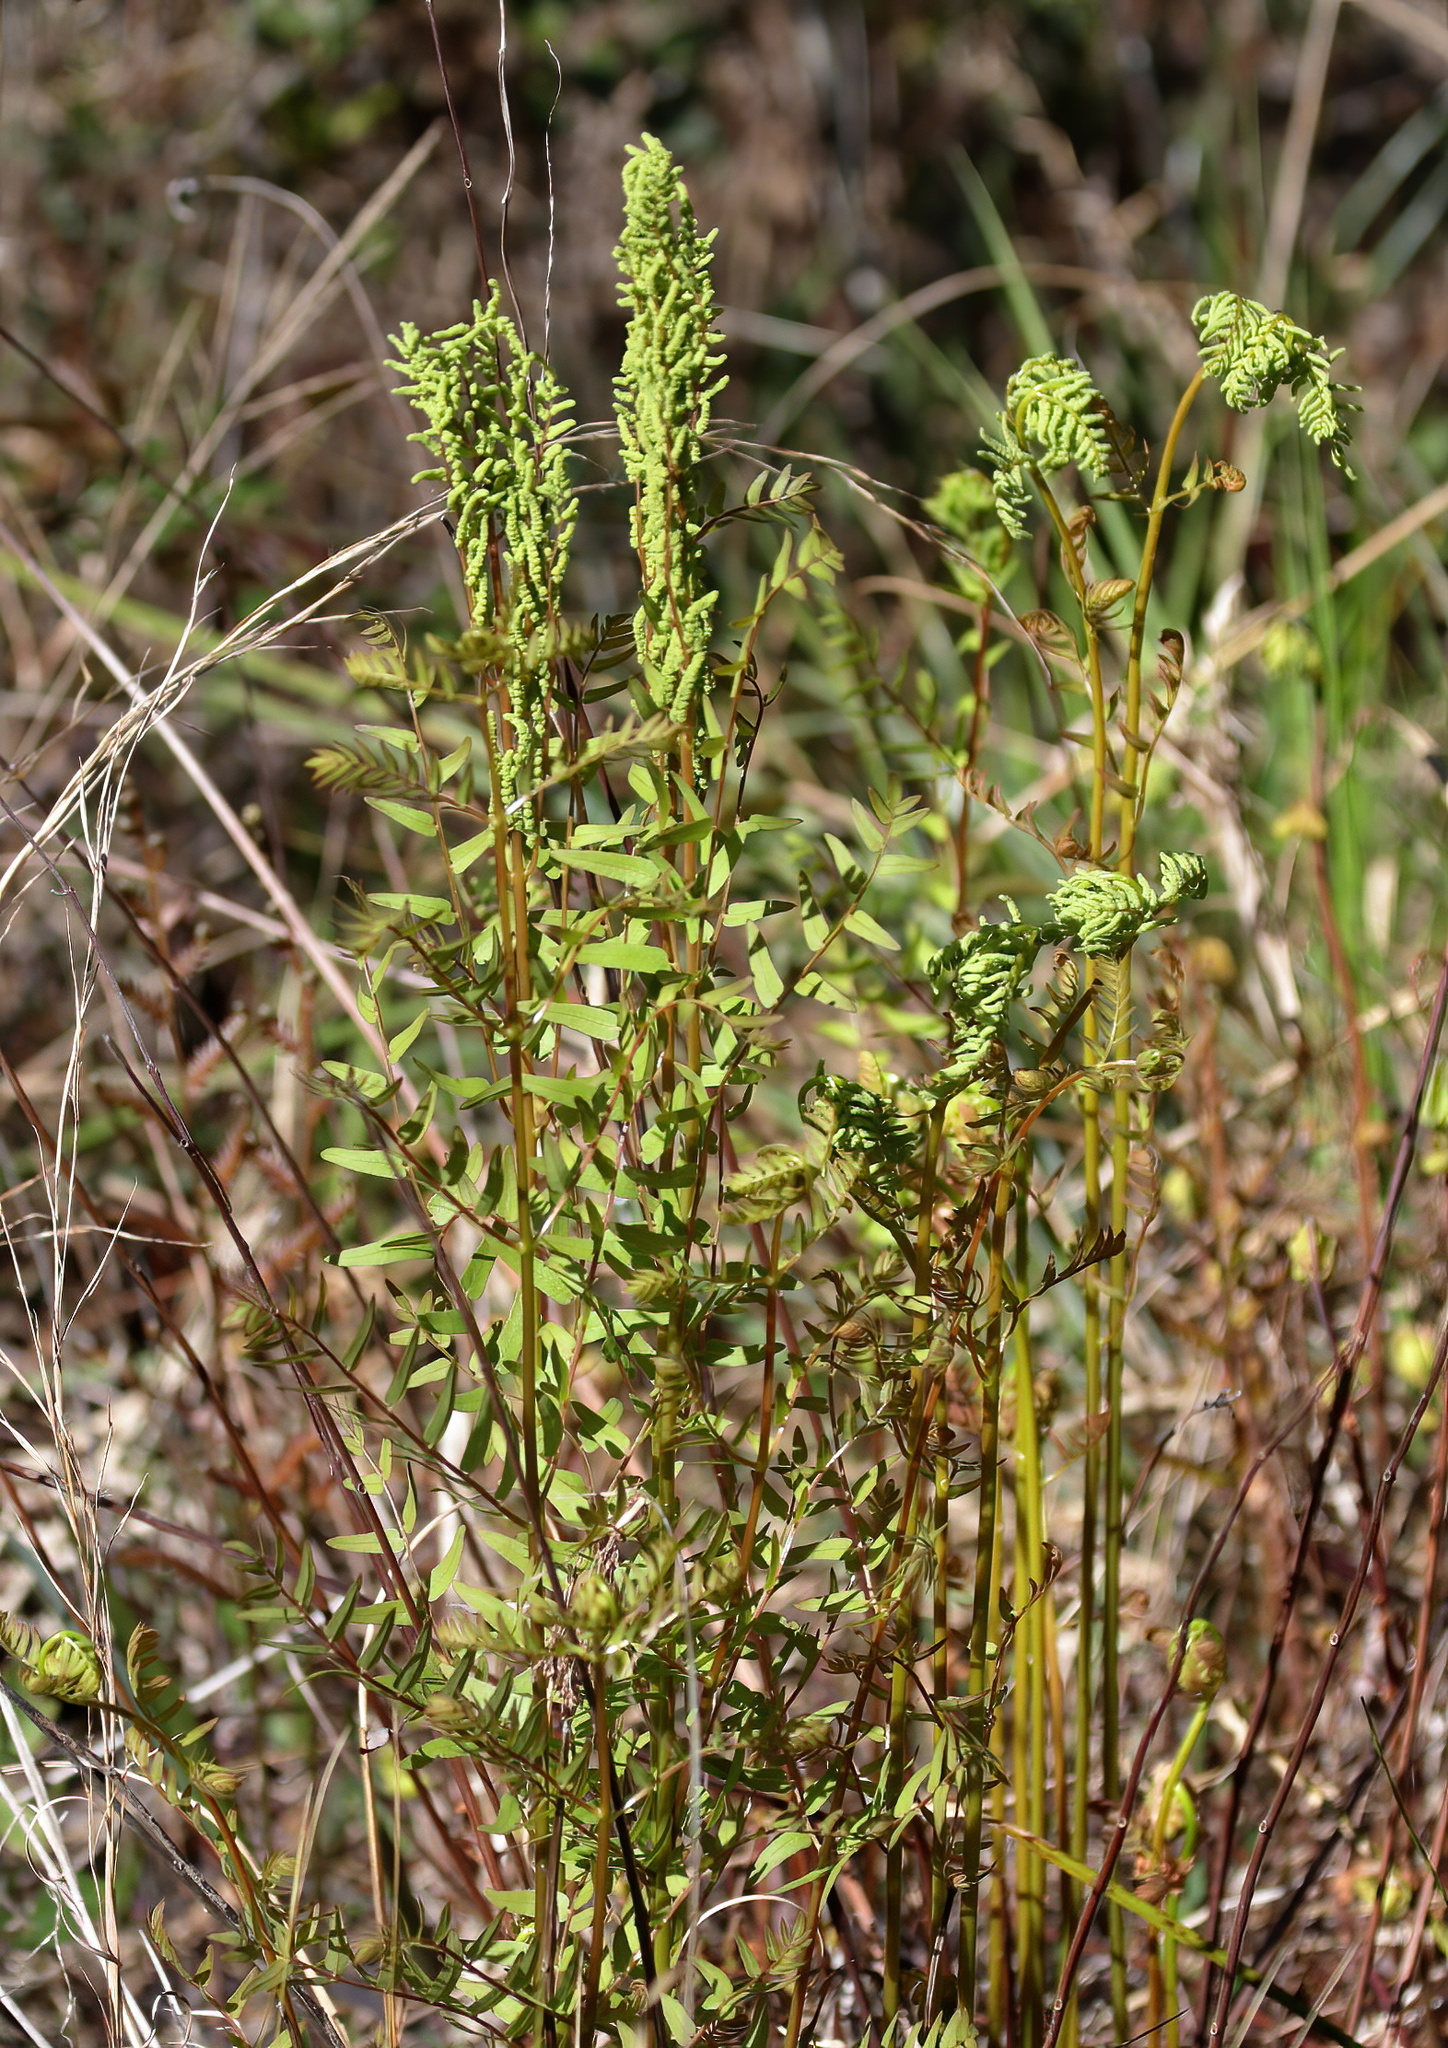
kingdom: Plantae
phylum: Tracheophyta
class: Polypodiopsida
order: Osmundales
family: Osmundaceae
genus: Osmunda
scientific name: Osmunda spectabilis
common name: American royal fern
